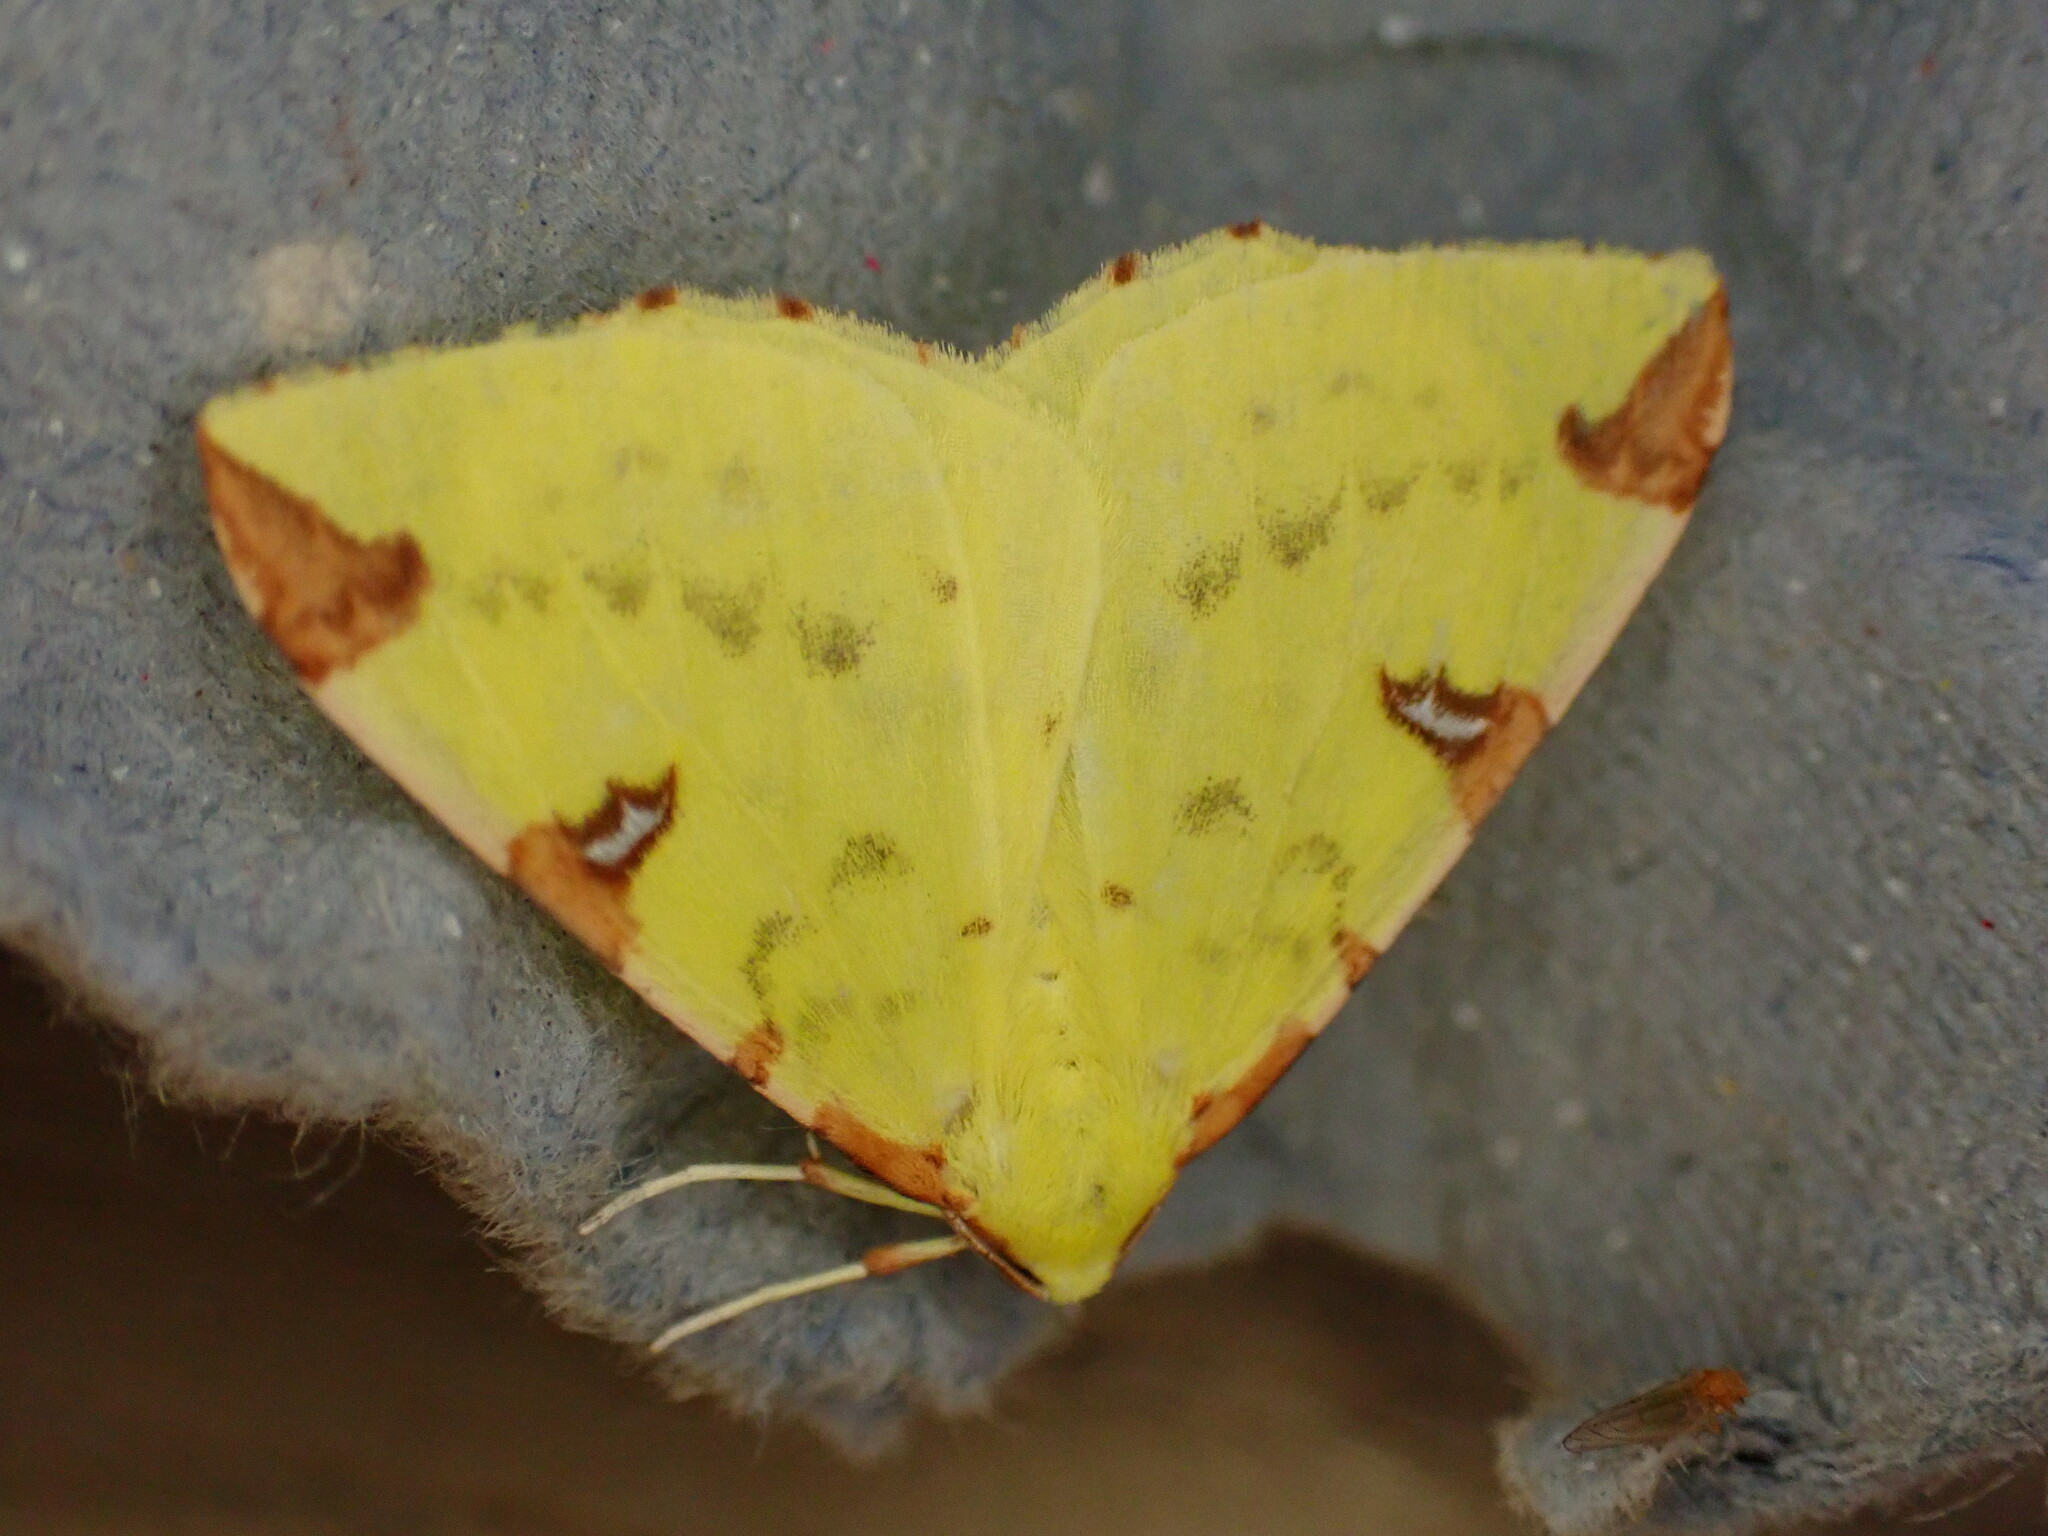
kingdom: Animalia
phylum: Arthropoda
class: Insecta
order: Lepidoptera
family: Geometridae
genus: Opisthograptis
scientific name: Opisthograptis luteolata
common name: Brimstone moth
